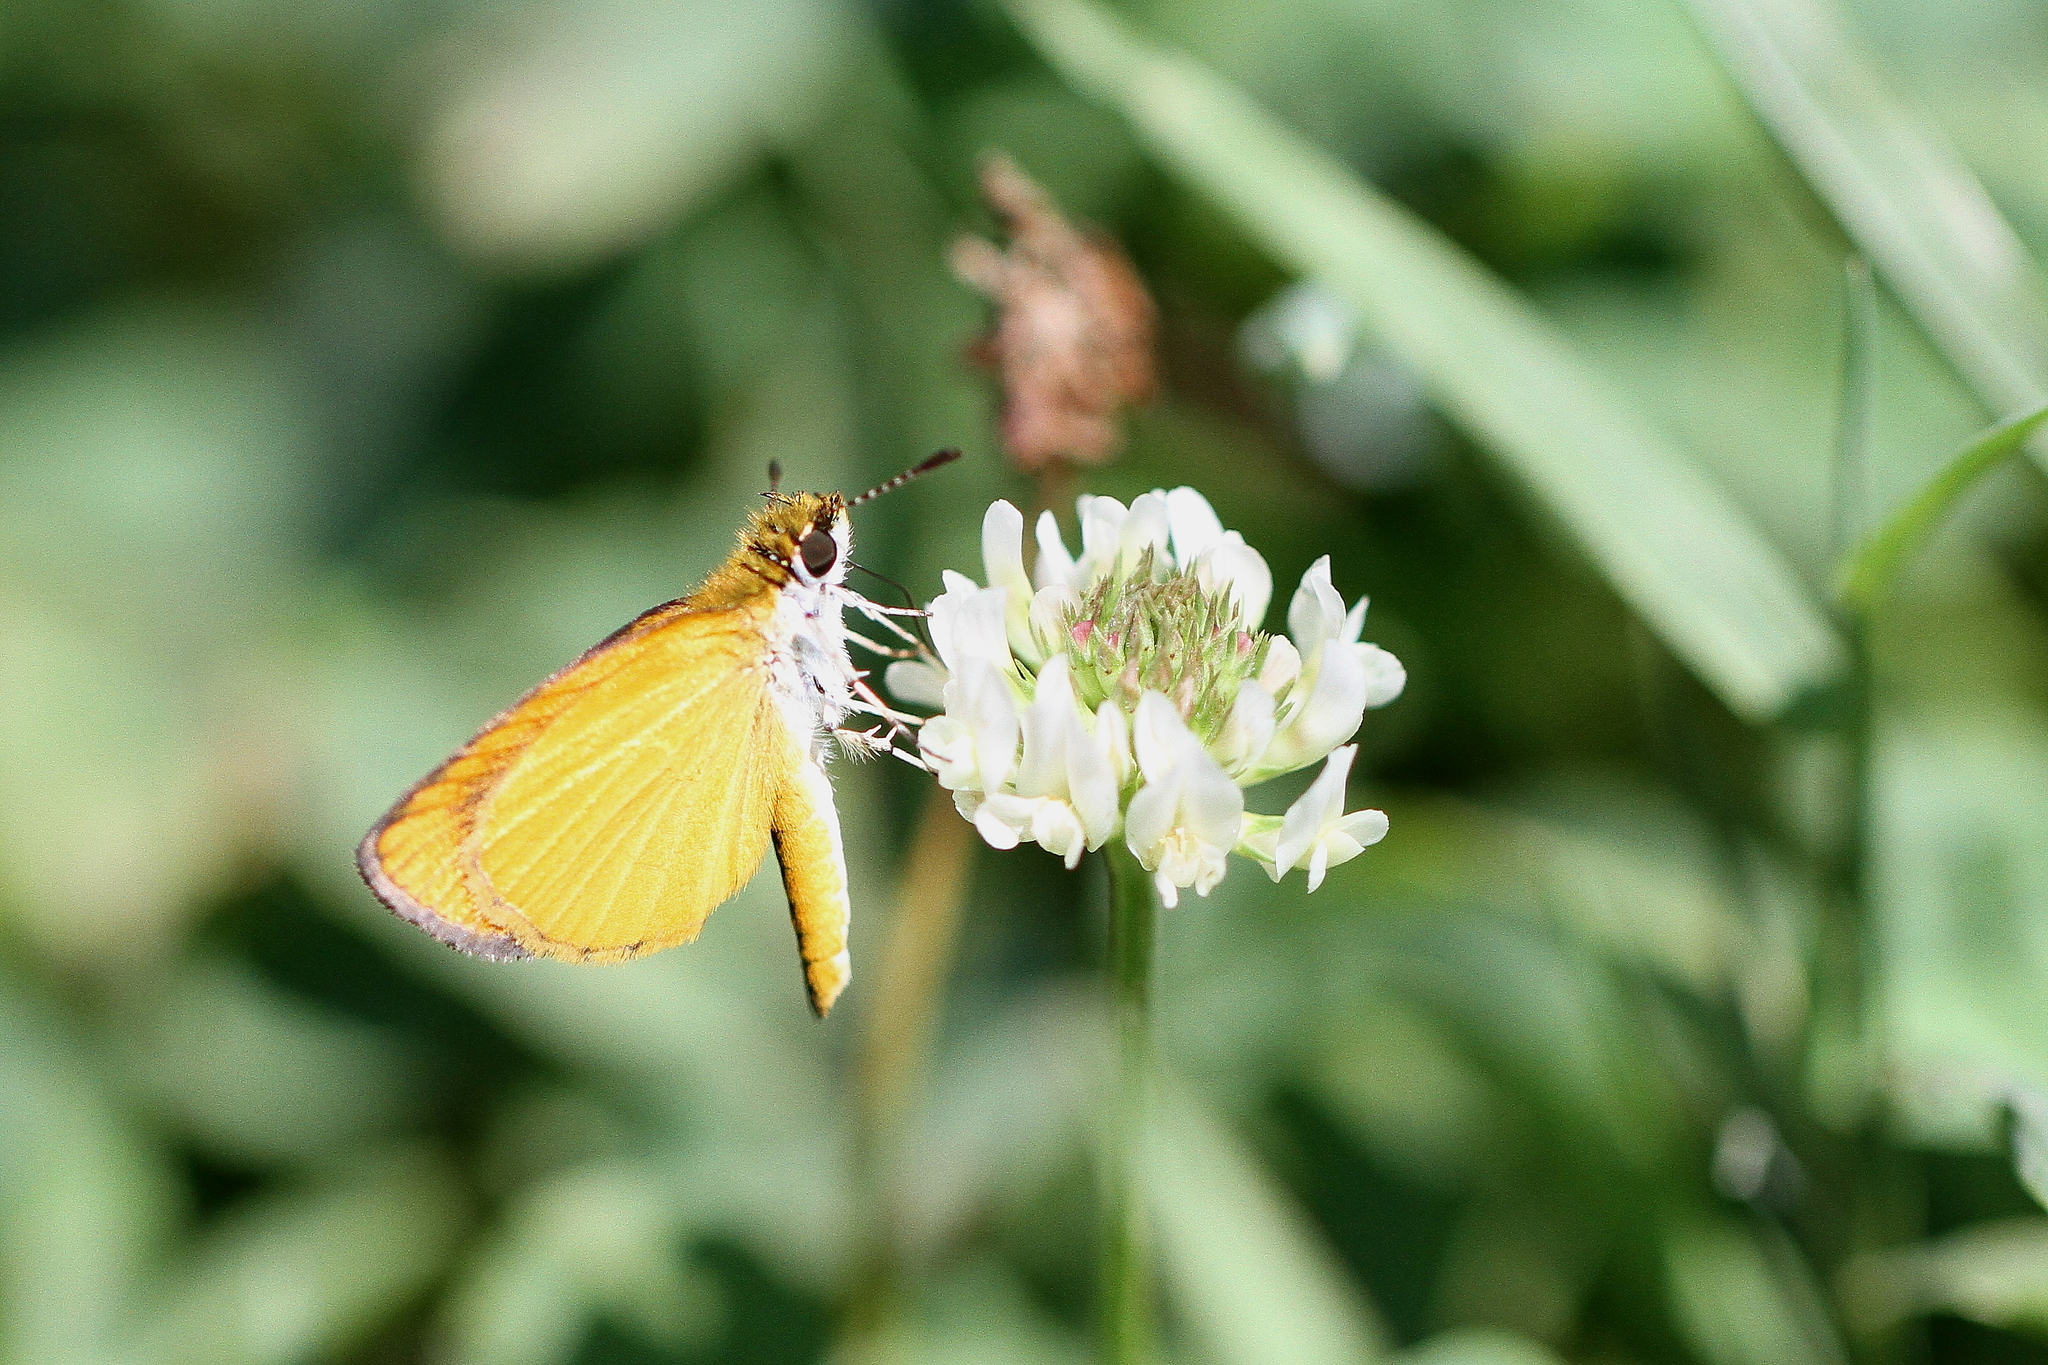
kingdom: Animalia
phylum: Arthropoda
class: Insecta
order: Lepidoptera
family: Hesperiidae
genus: Ancyloxypha
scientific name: Ancyloxypha numitor
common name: Least skipper
